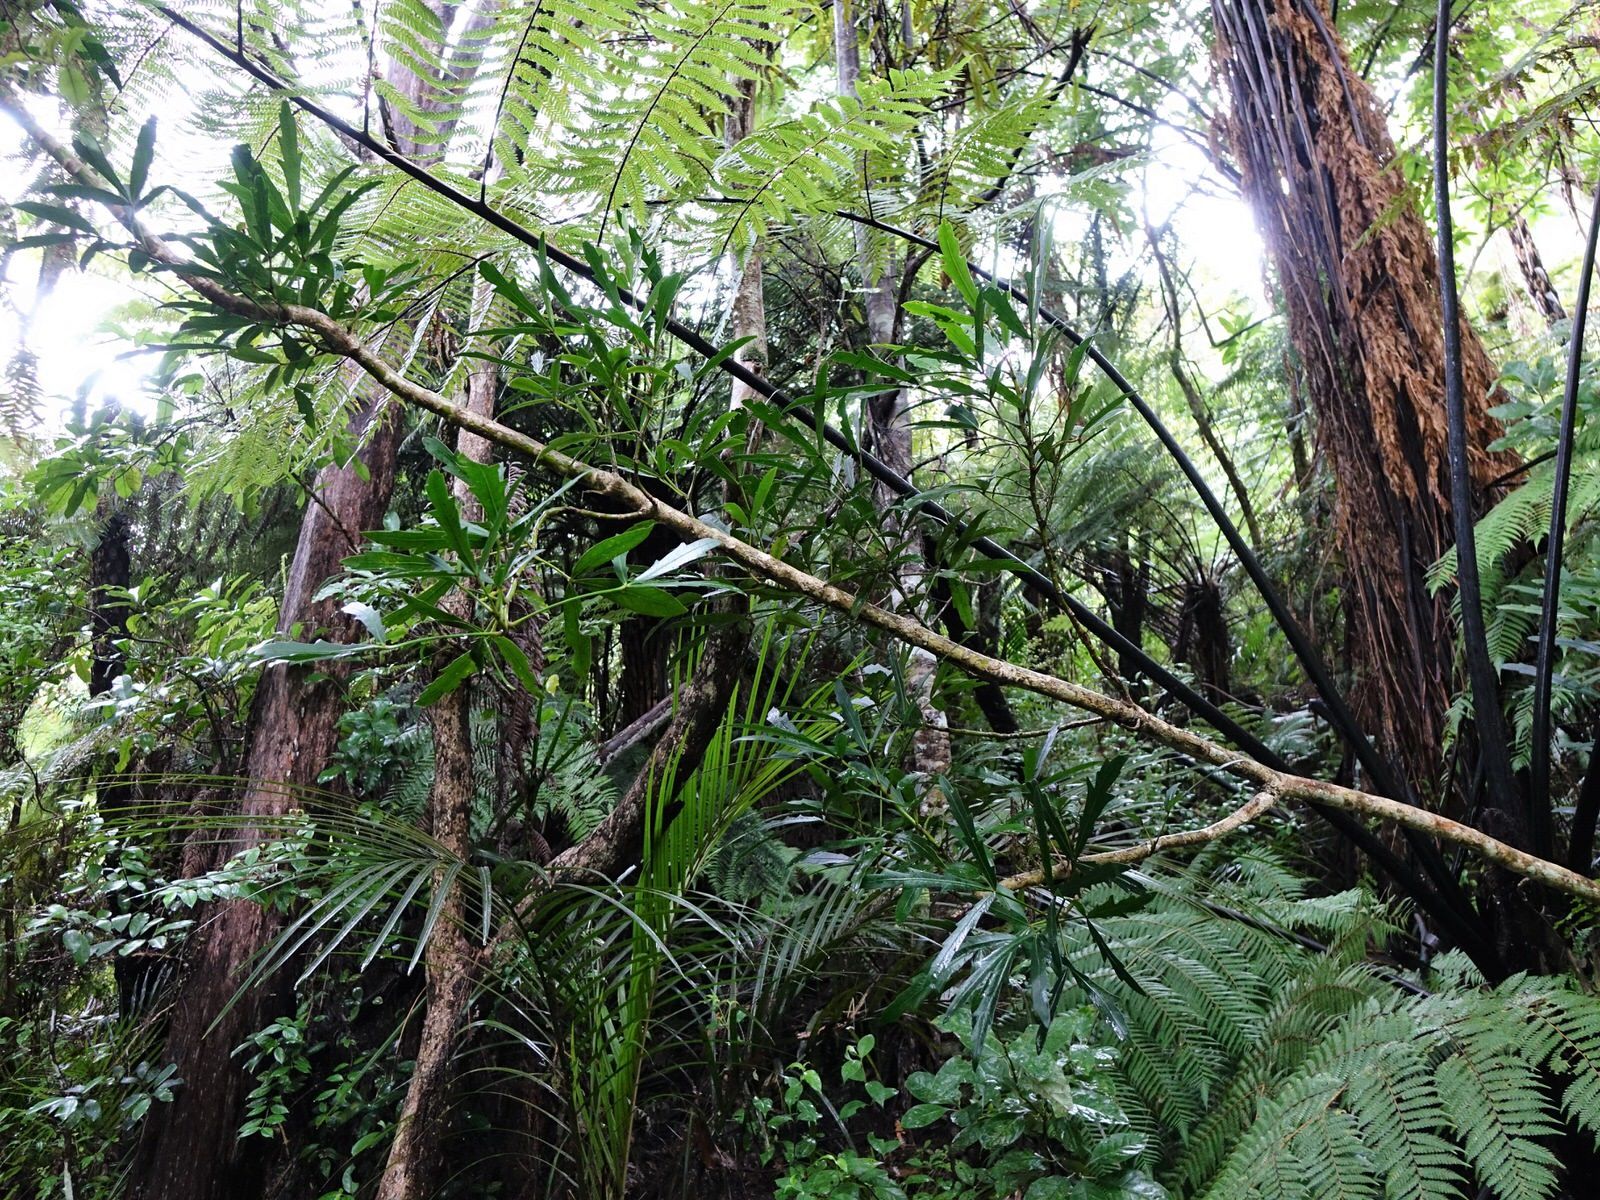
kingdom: Plantae
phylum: Tracheophyta
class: Magnoliopsida
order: Apiales
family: Araliaceae
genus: Pseudopanax
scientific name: Pseudopanax
